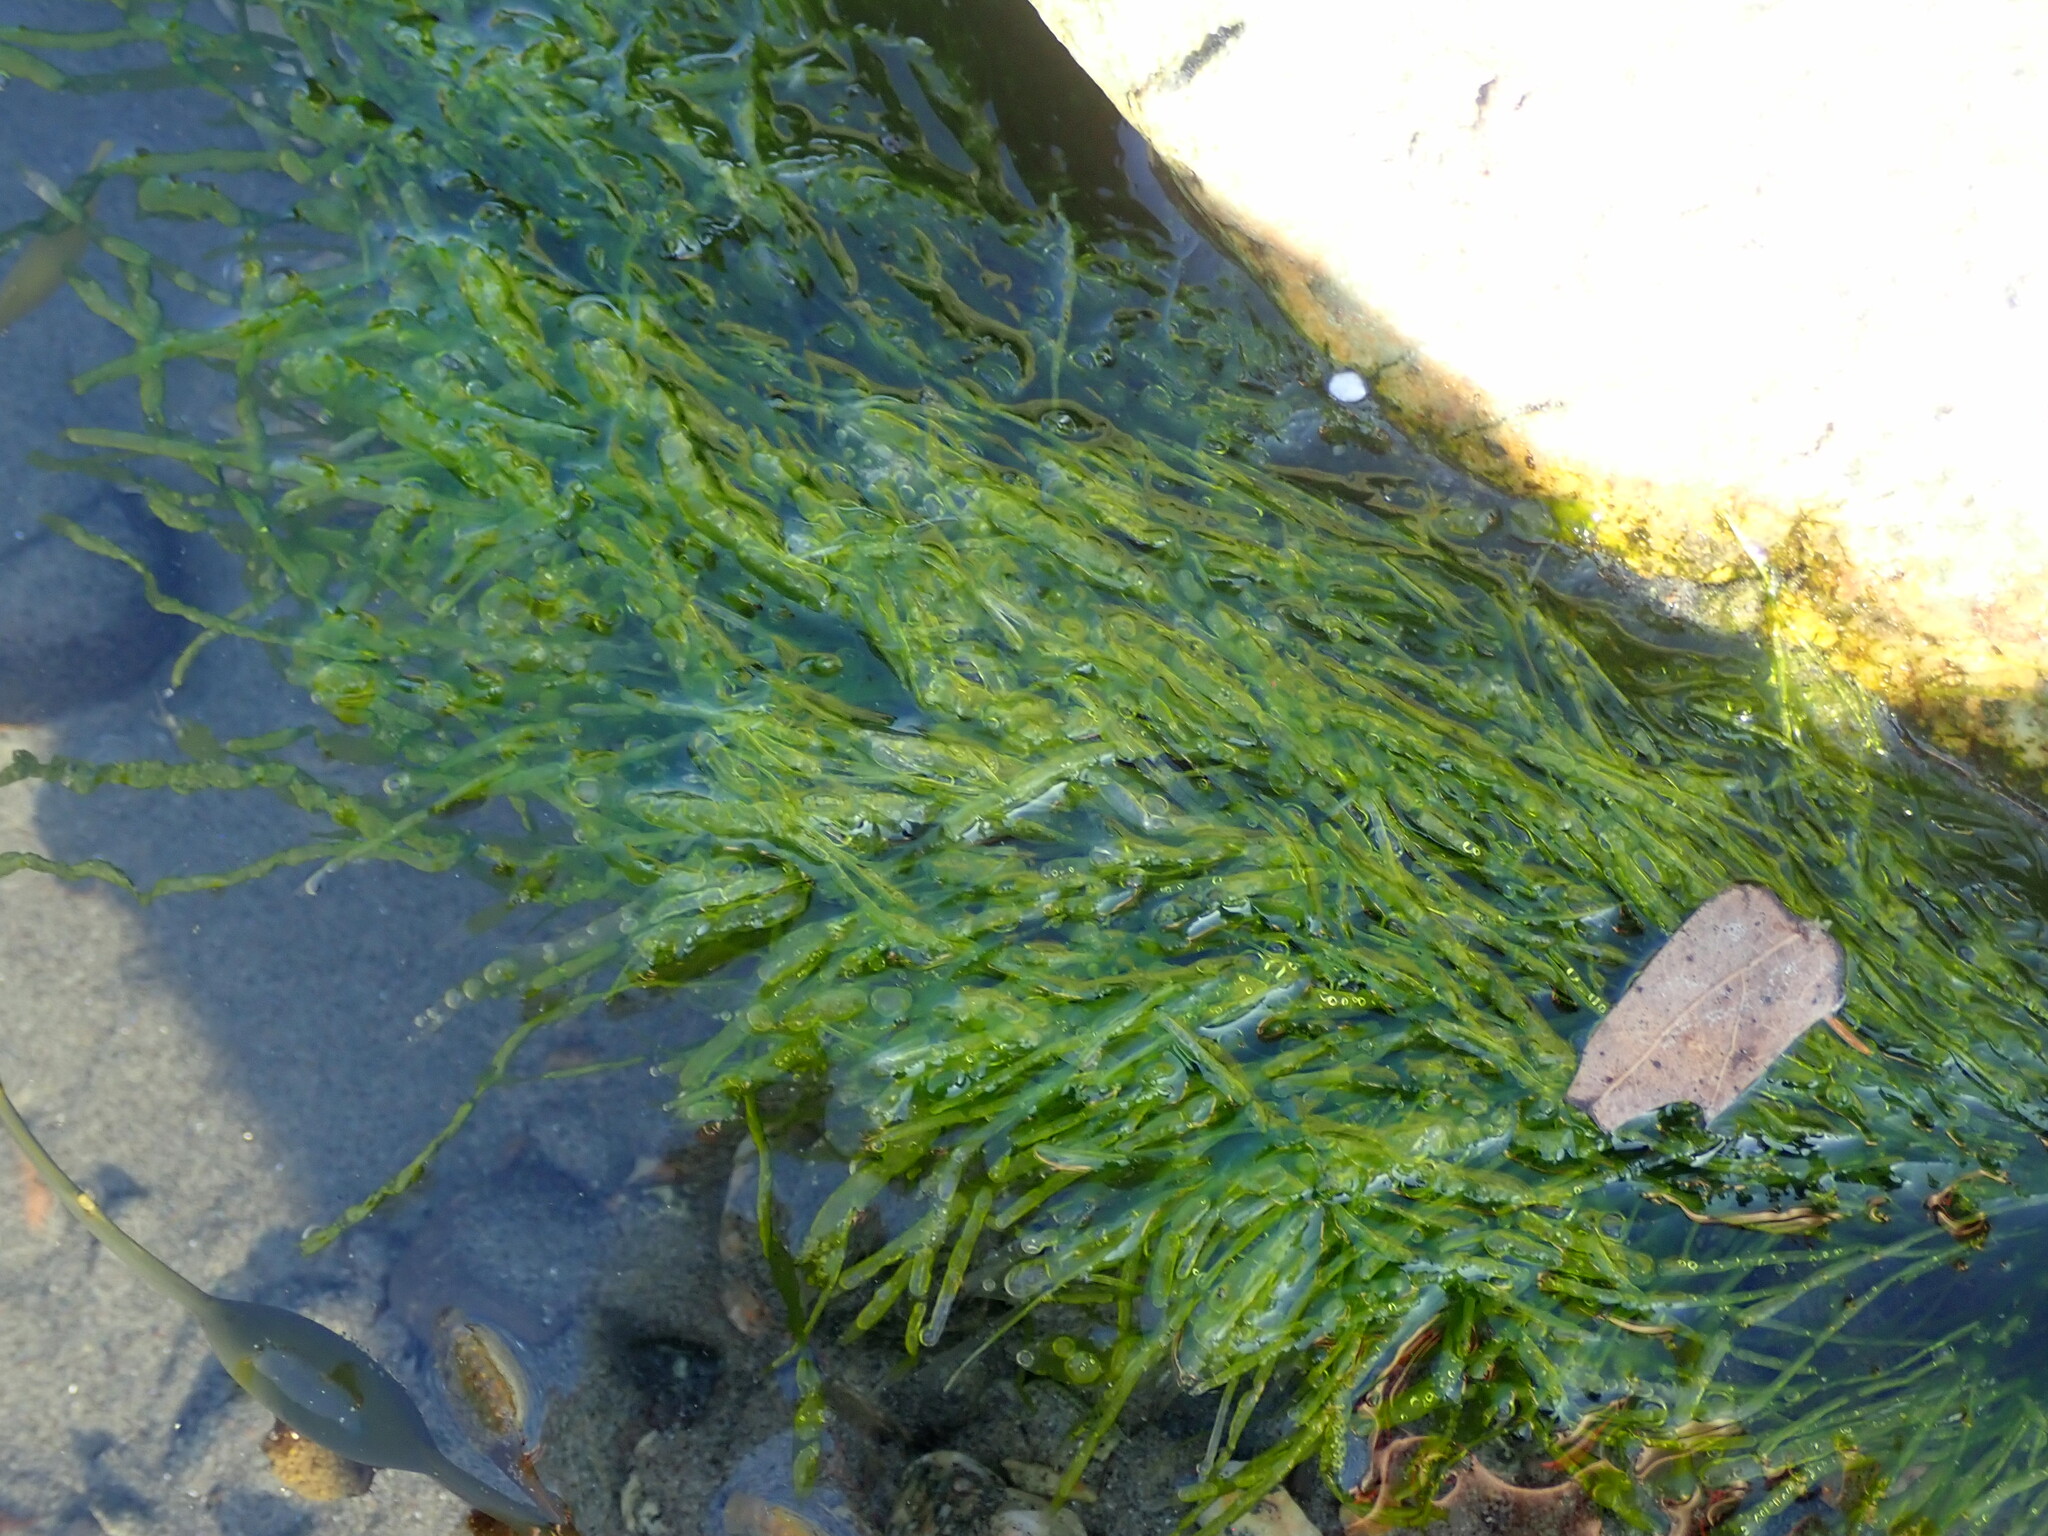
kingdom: Plantae
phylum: Chlorophyta
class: Ulvophyceae
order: Ulvales
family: Ulvaceae
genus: Ulva
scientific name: Ulva intestinalis
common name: Gut weed
